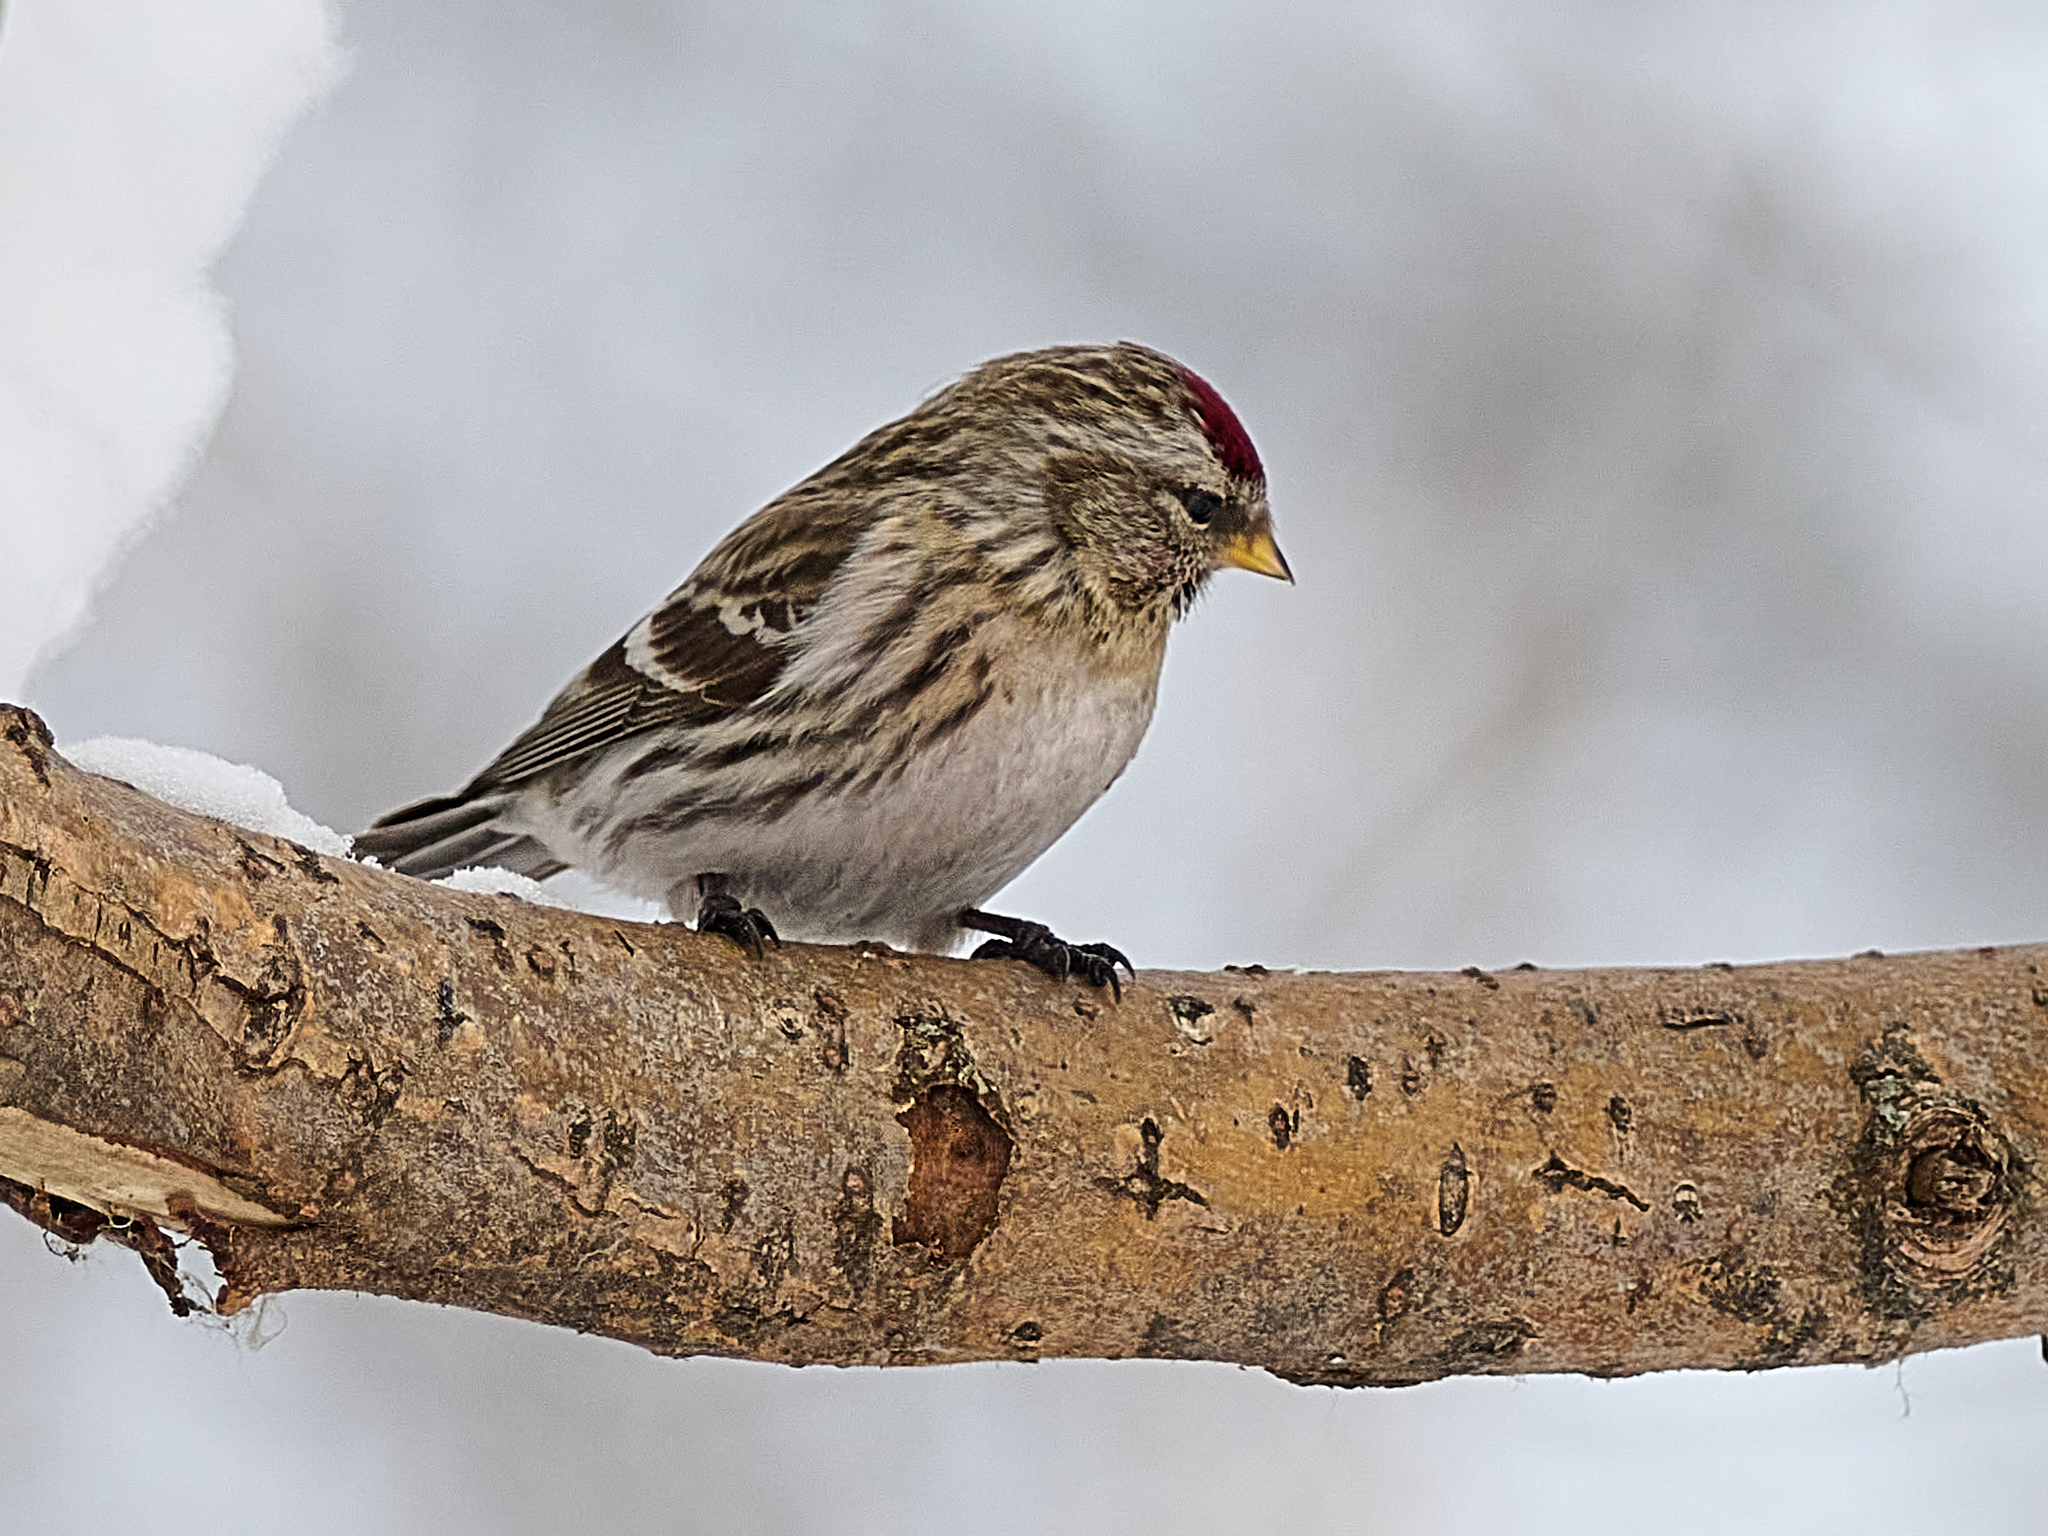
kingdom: Animalia
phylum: Chordata
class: Aves
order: Passeriformes
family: Fringillidae
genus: Acanthis
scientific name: Acanthis flammea
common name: Common redpoll
